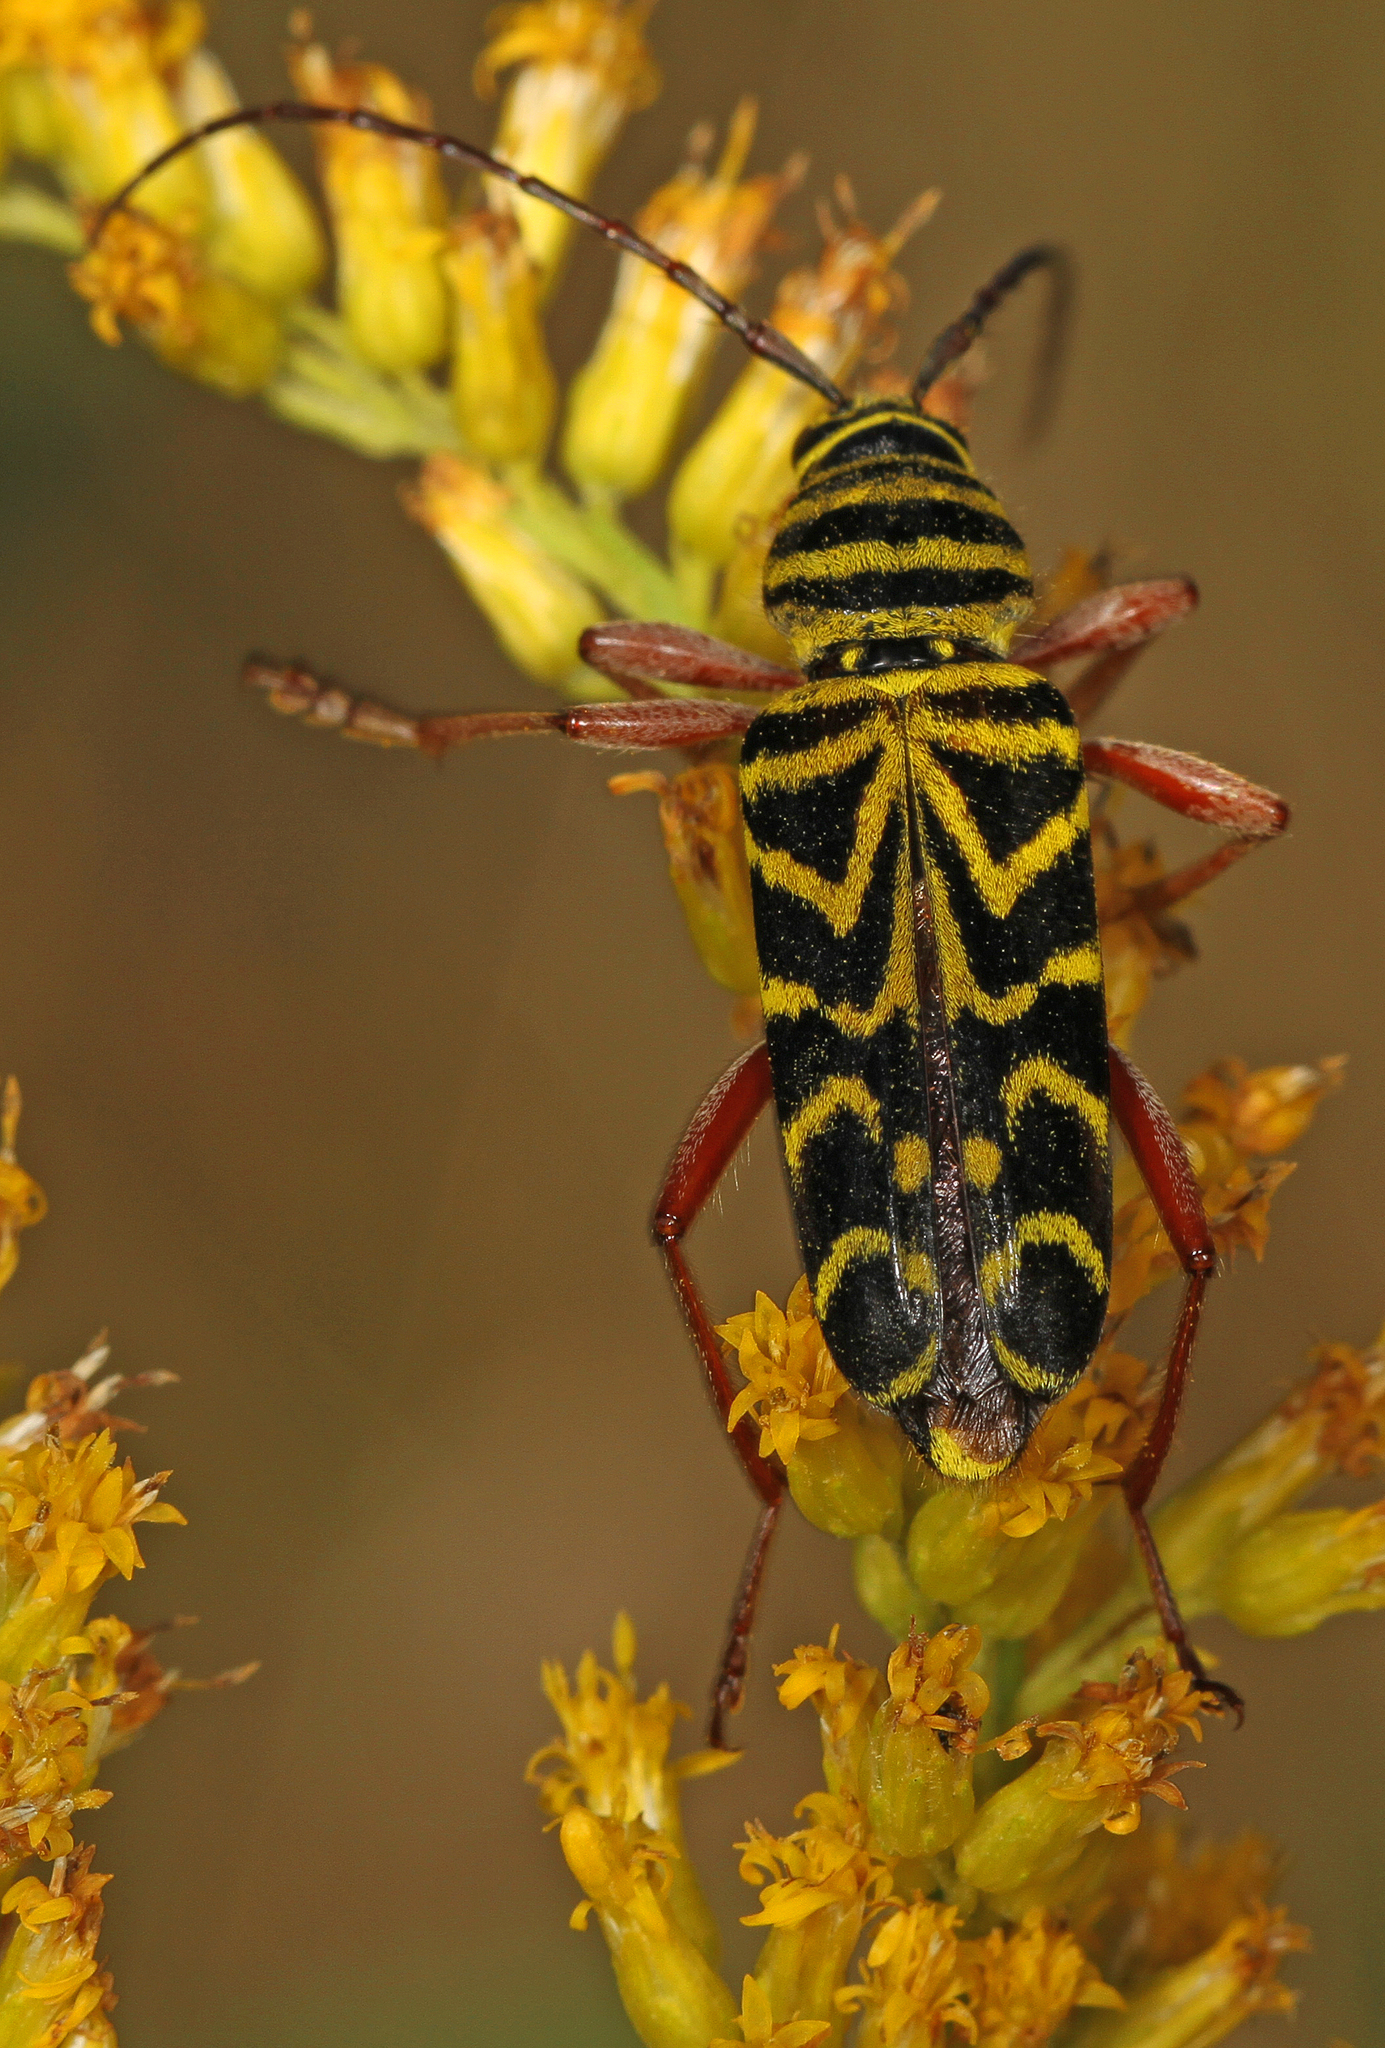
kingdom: Animalia
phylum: Arthropoda
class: Insecta
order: Coleoptera
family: Cerambycidae
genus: Megacyllene
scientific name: Megacyllene robiniae
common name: Locust borer
